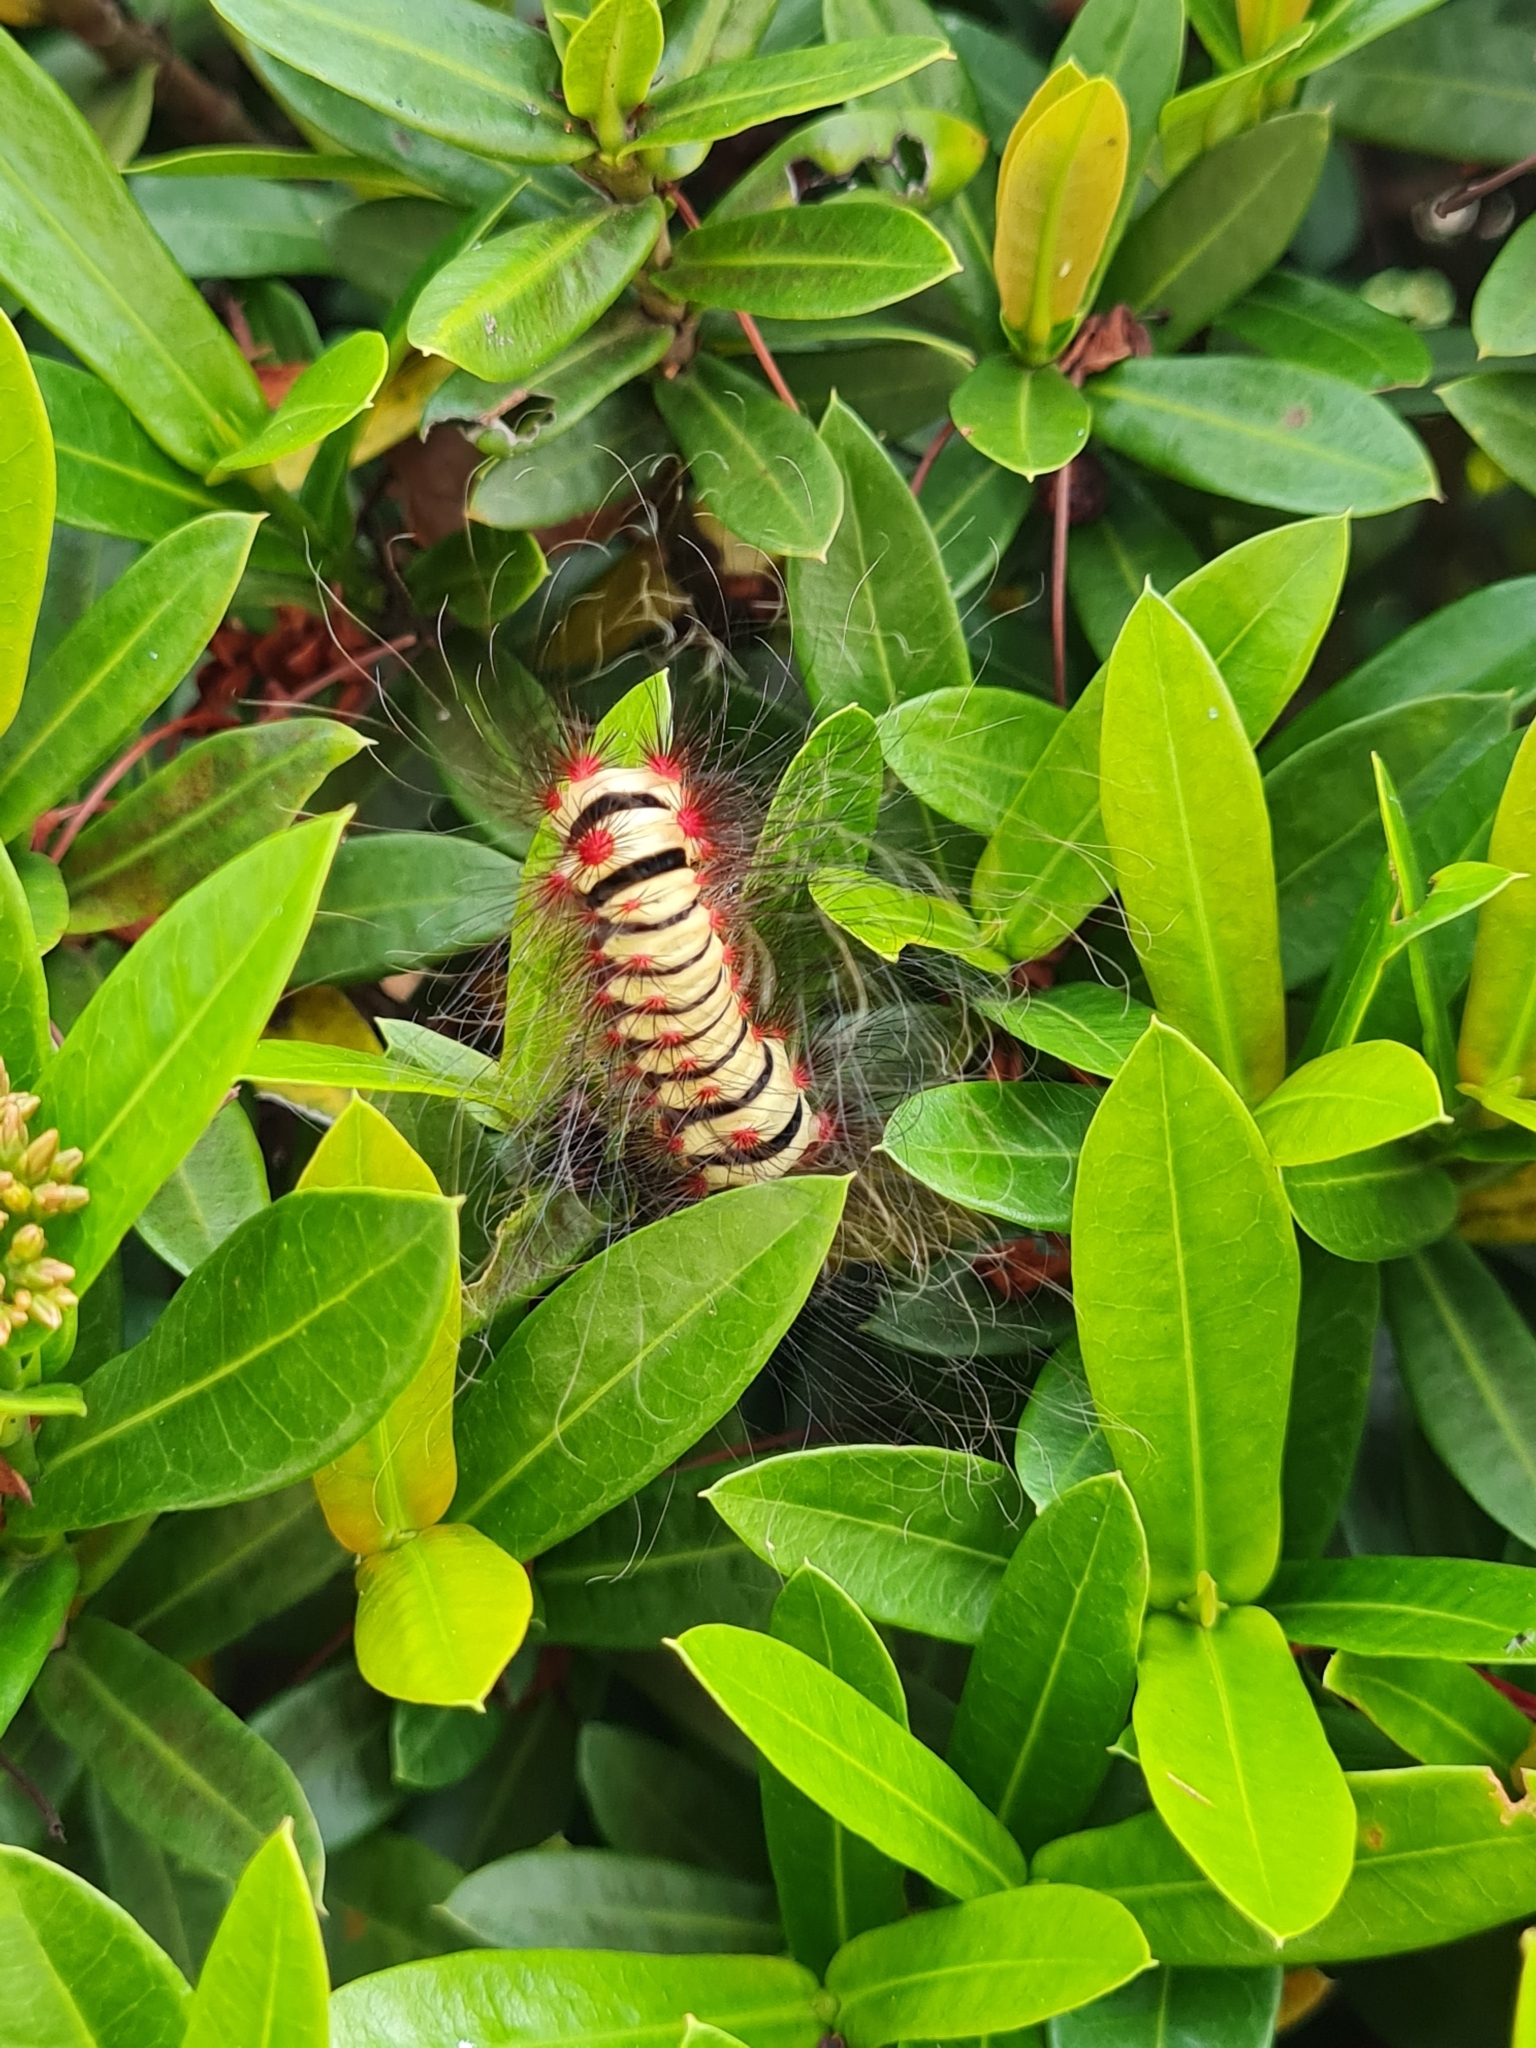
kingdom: Animalia
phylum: Arthropoda
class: Insecta
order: Lepidoptera
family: Megalopygidae
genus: Megalopyge
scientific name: Megalopyge lanata
